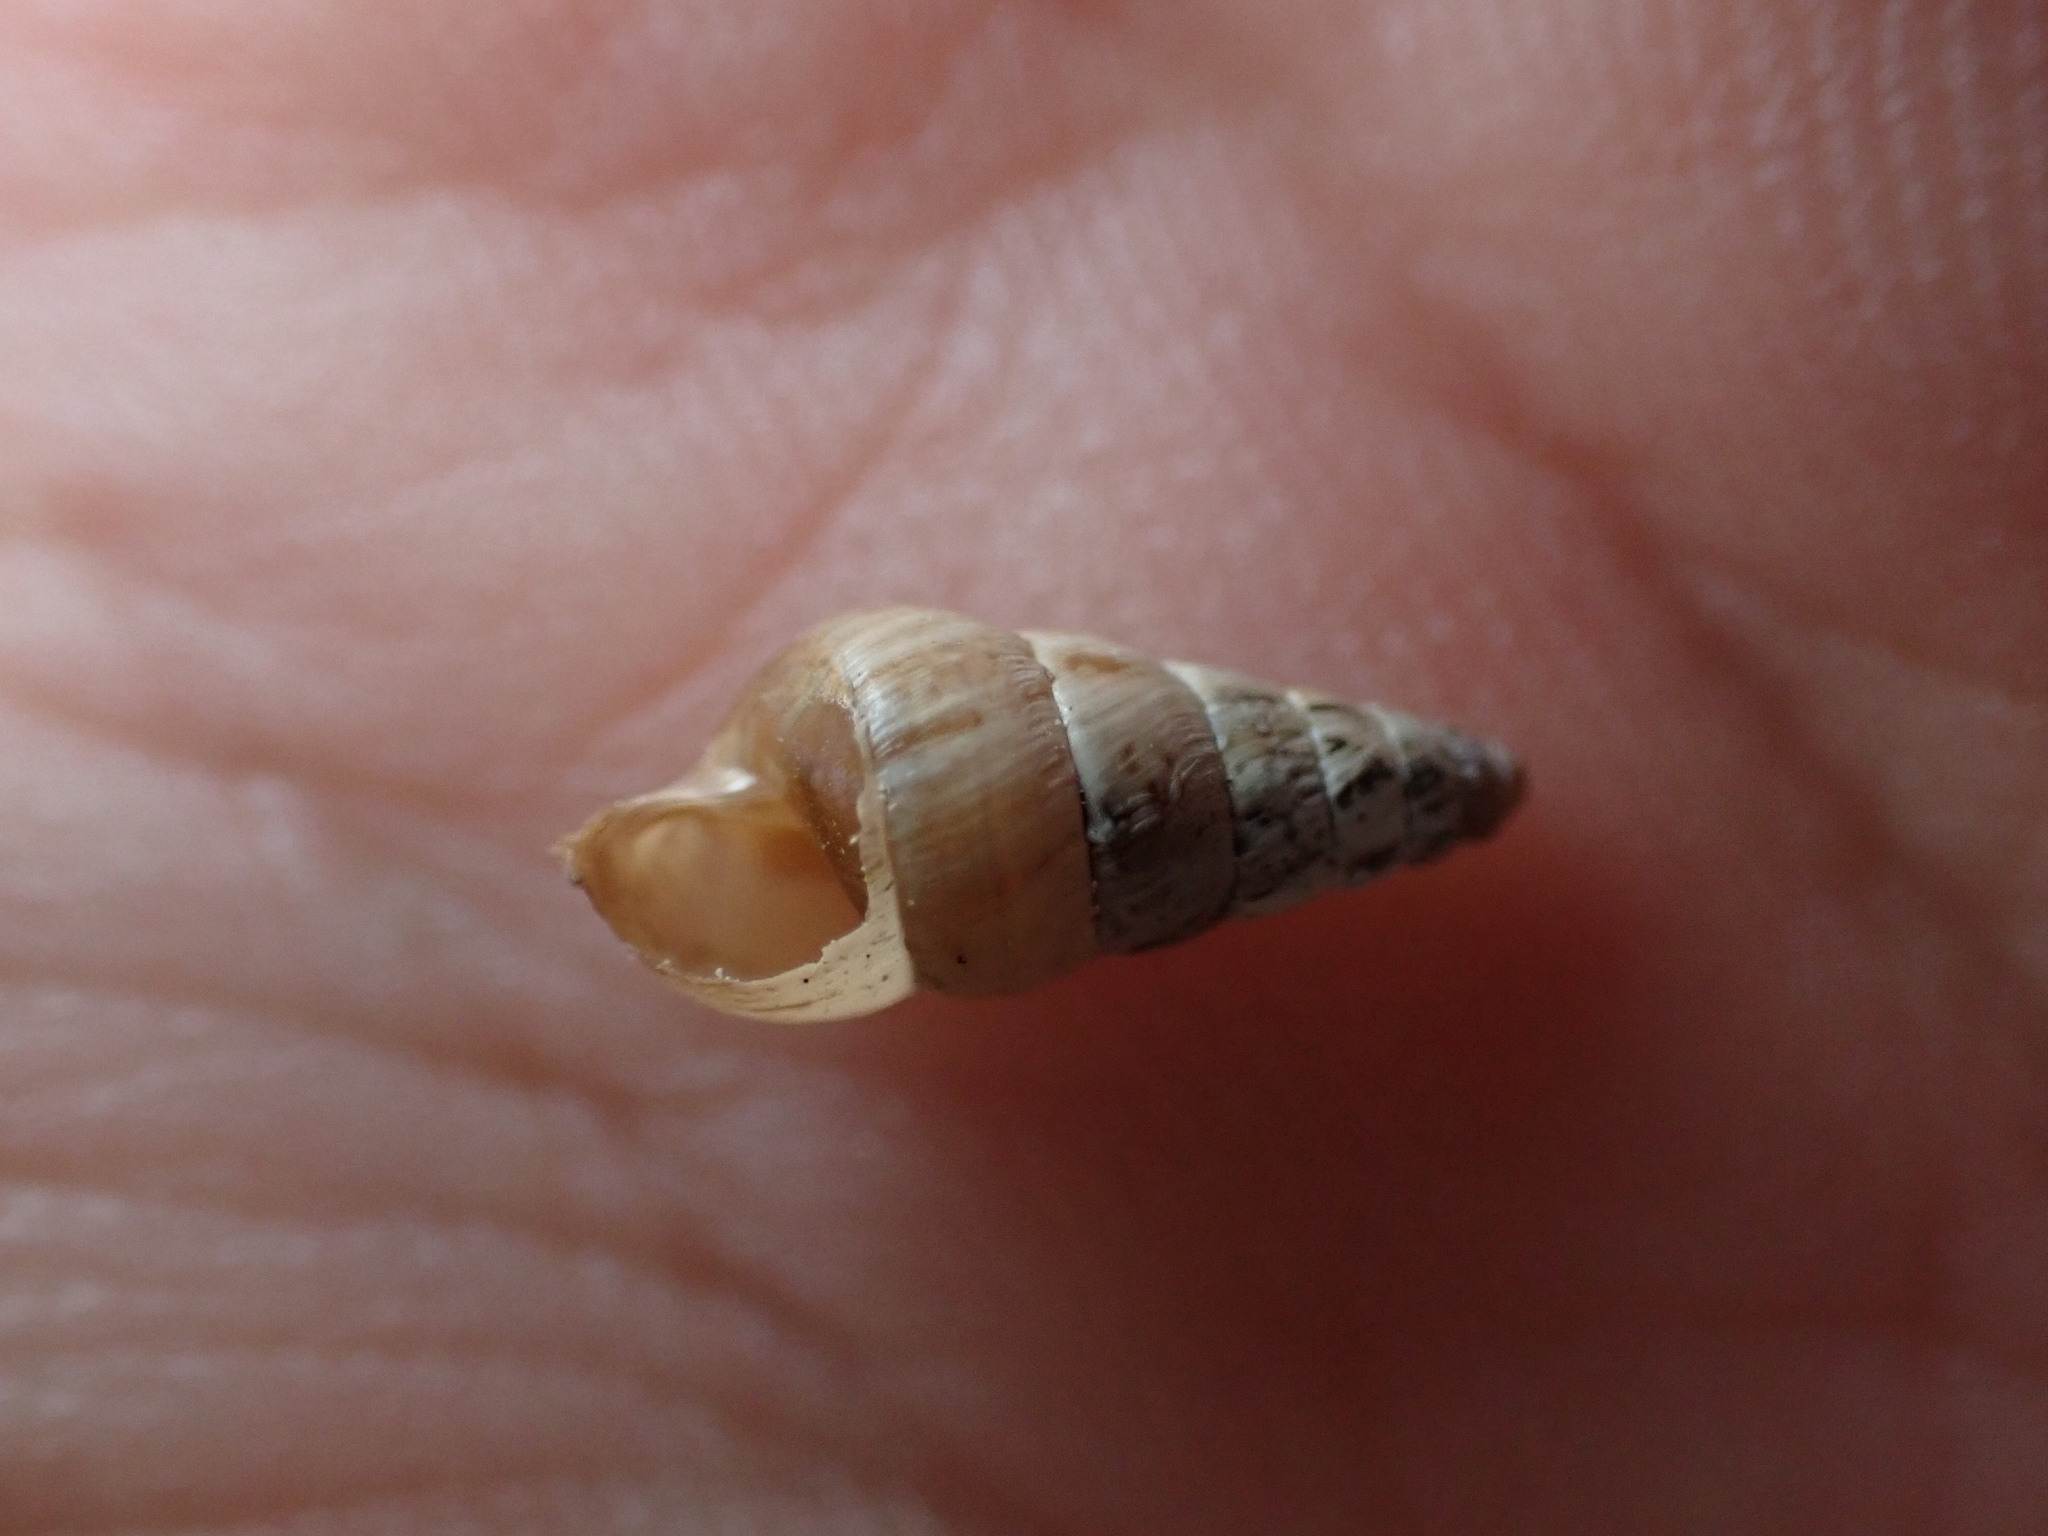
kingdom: Animalia
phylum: Mollusca
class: Gastropoda
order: Stylommatophora
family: Geomitridae
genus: Cochlicella
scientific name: Cochlicella acuta
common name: Pointed snail
